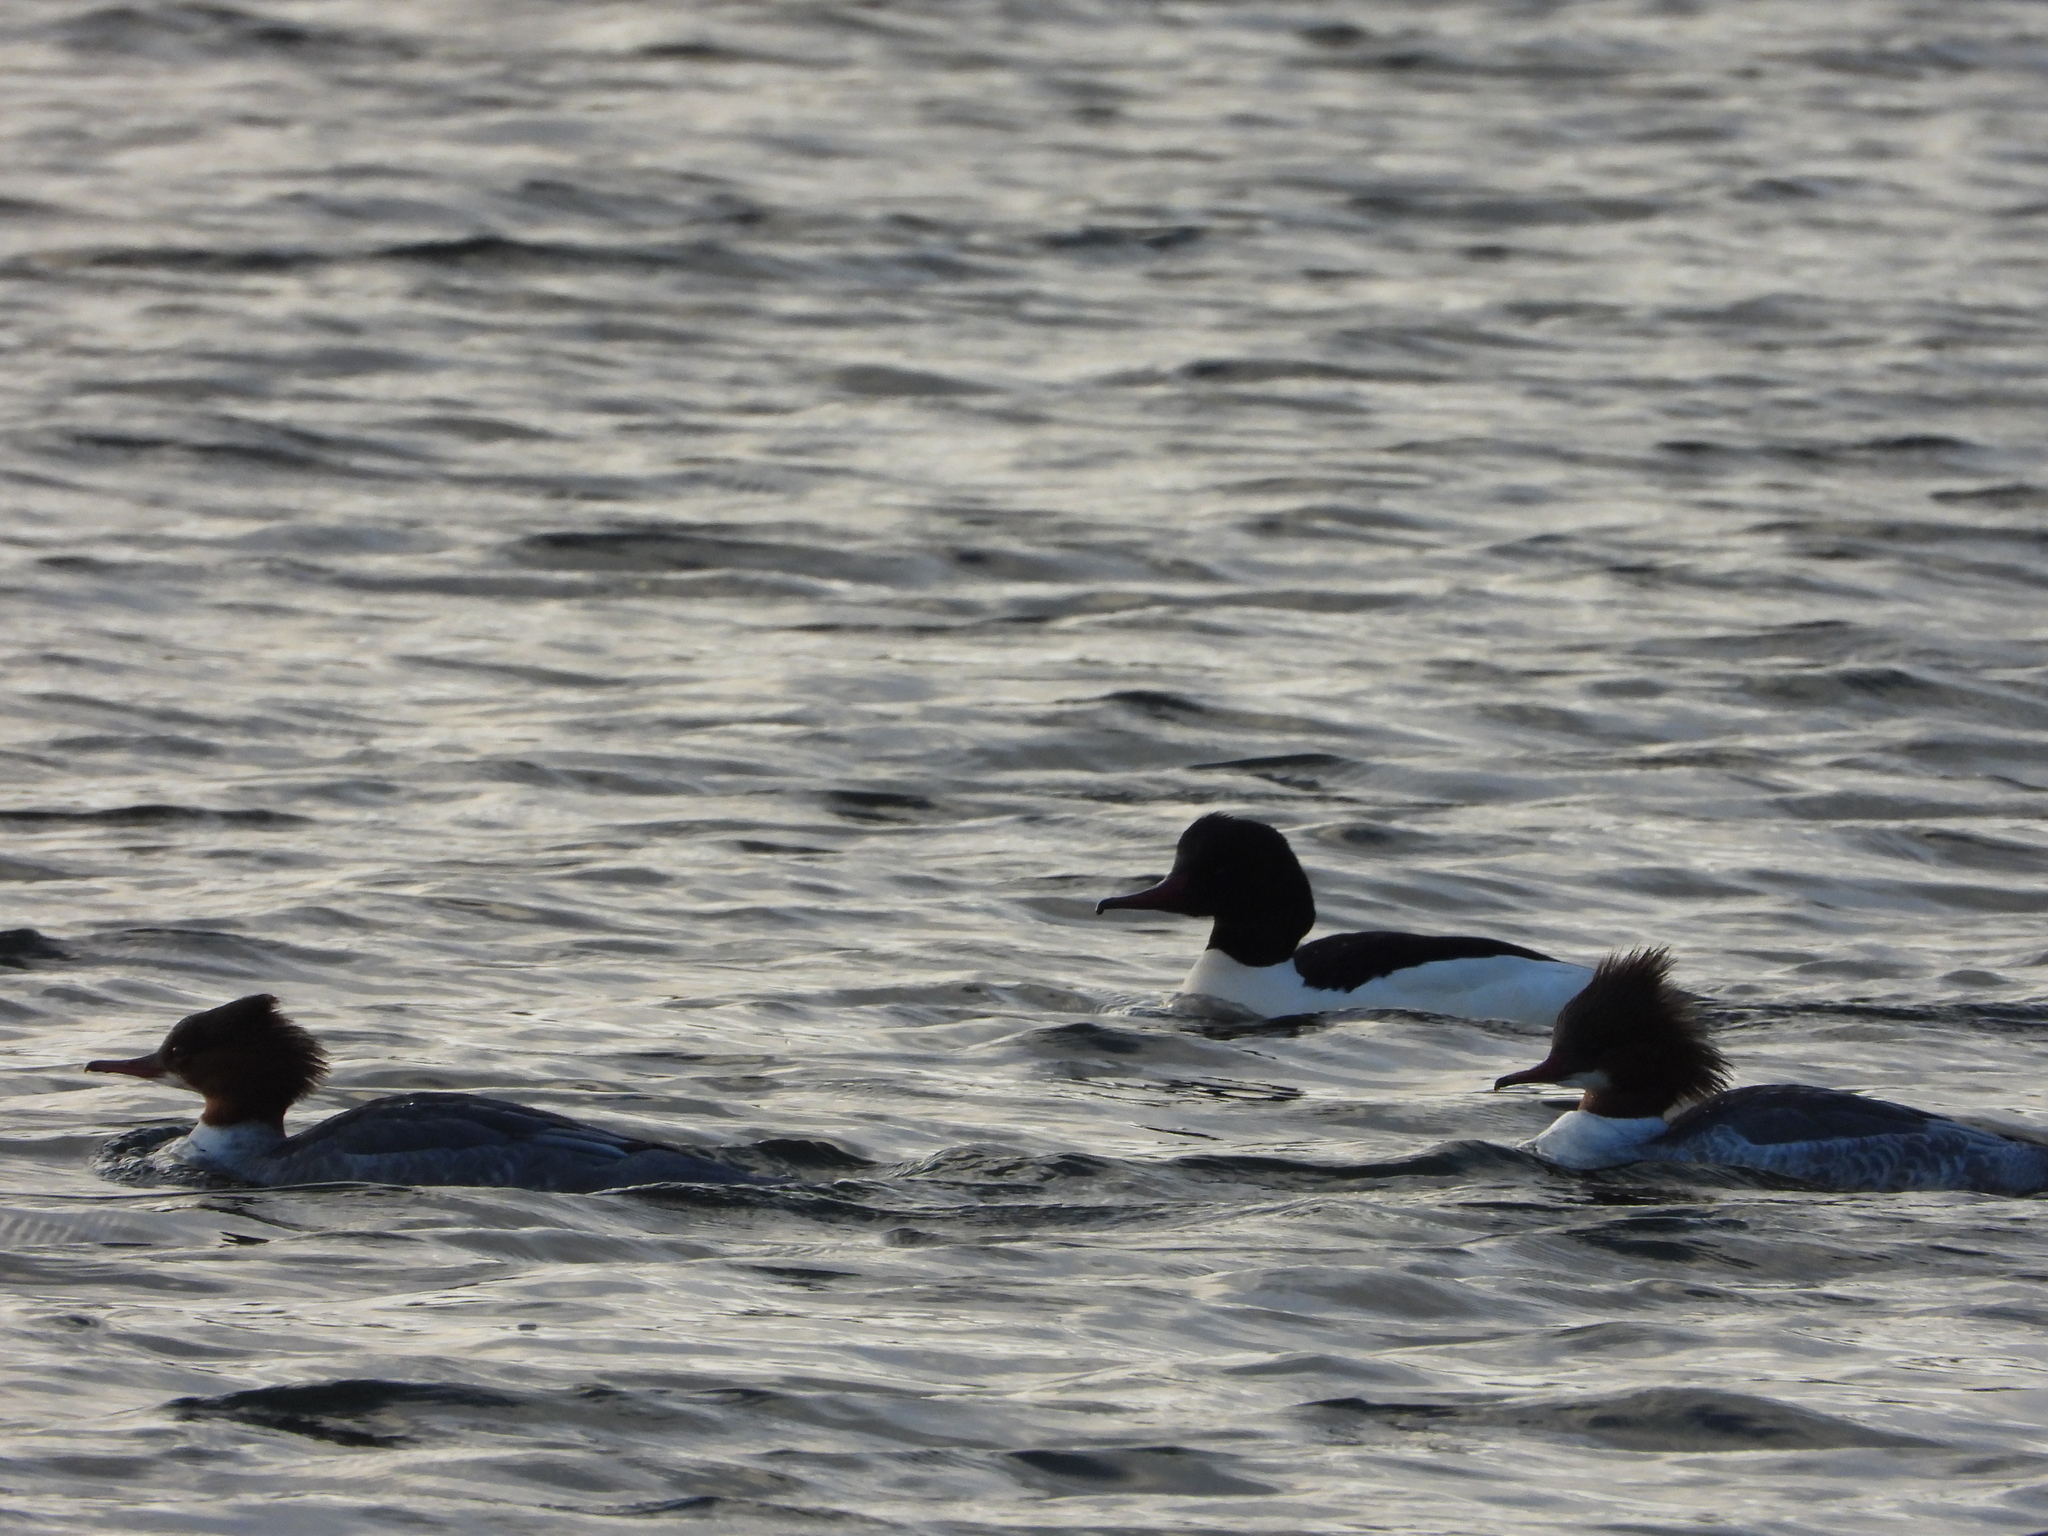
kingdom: Animalia
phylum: Chordata
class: Aves
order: Anseriformes
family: Anatidae
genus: Mergus
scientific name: Mergus merganser
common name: Common merganser
